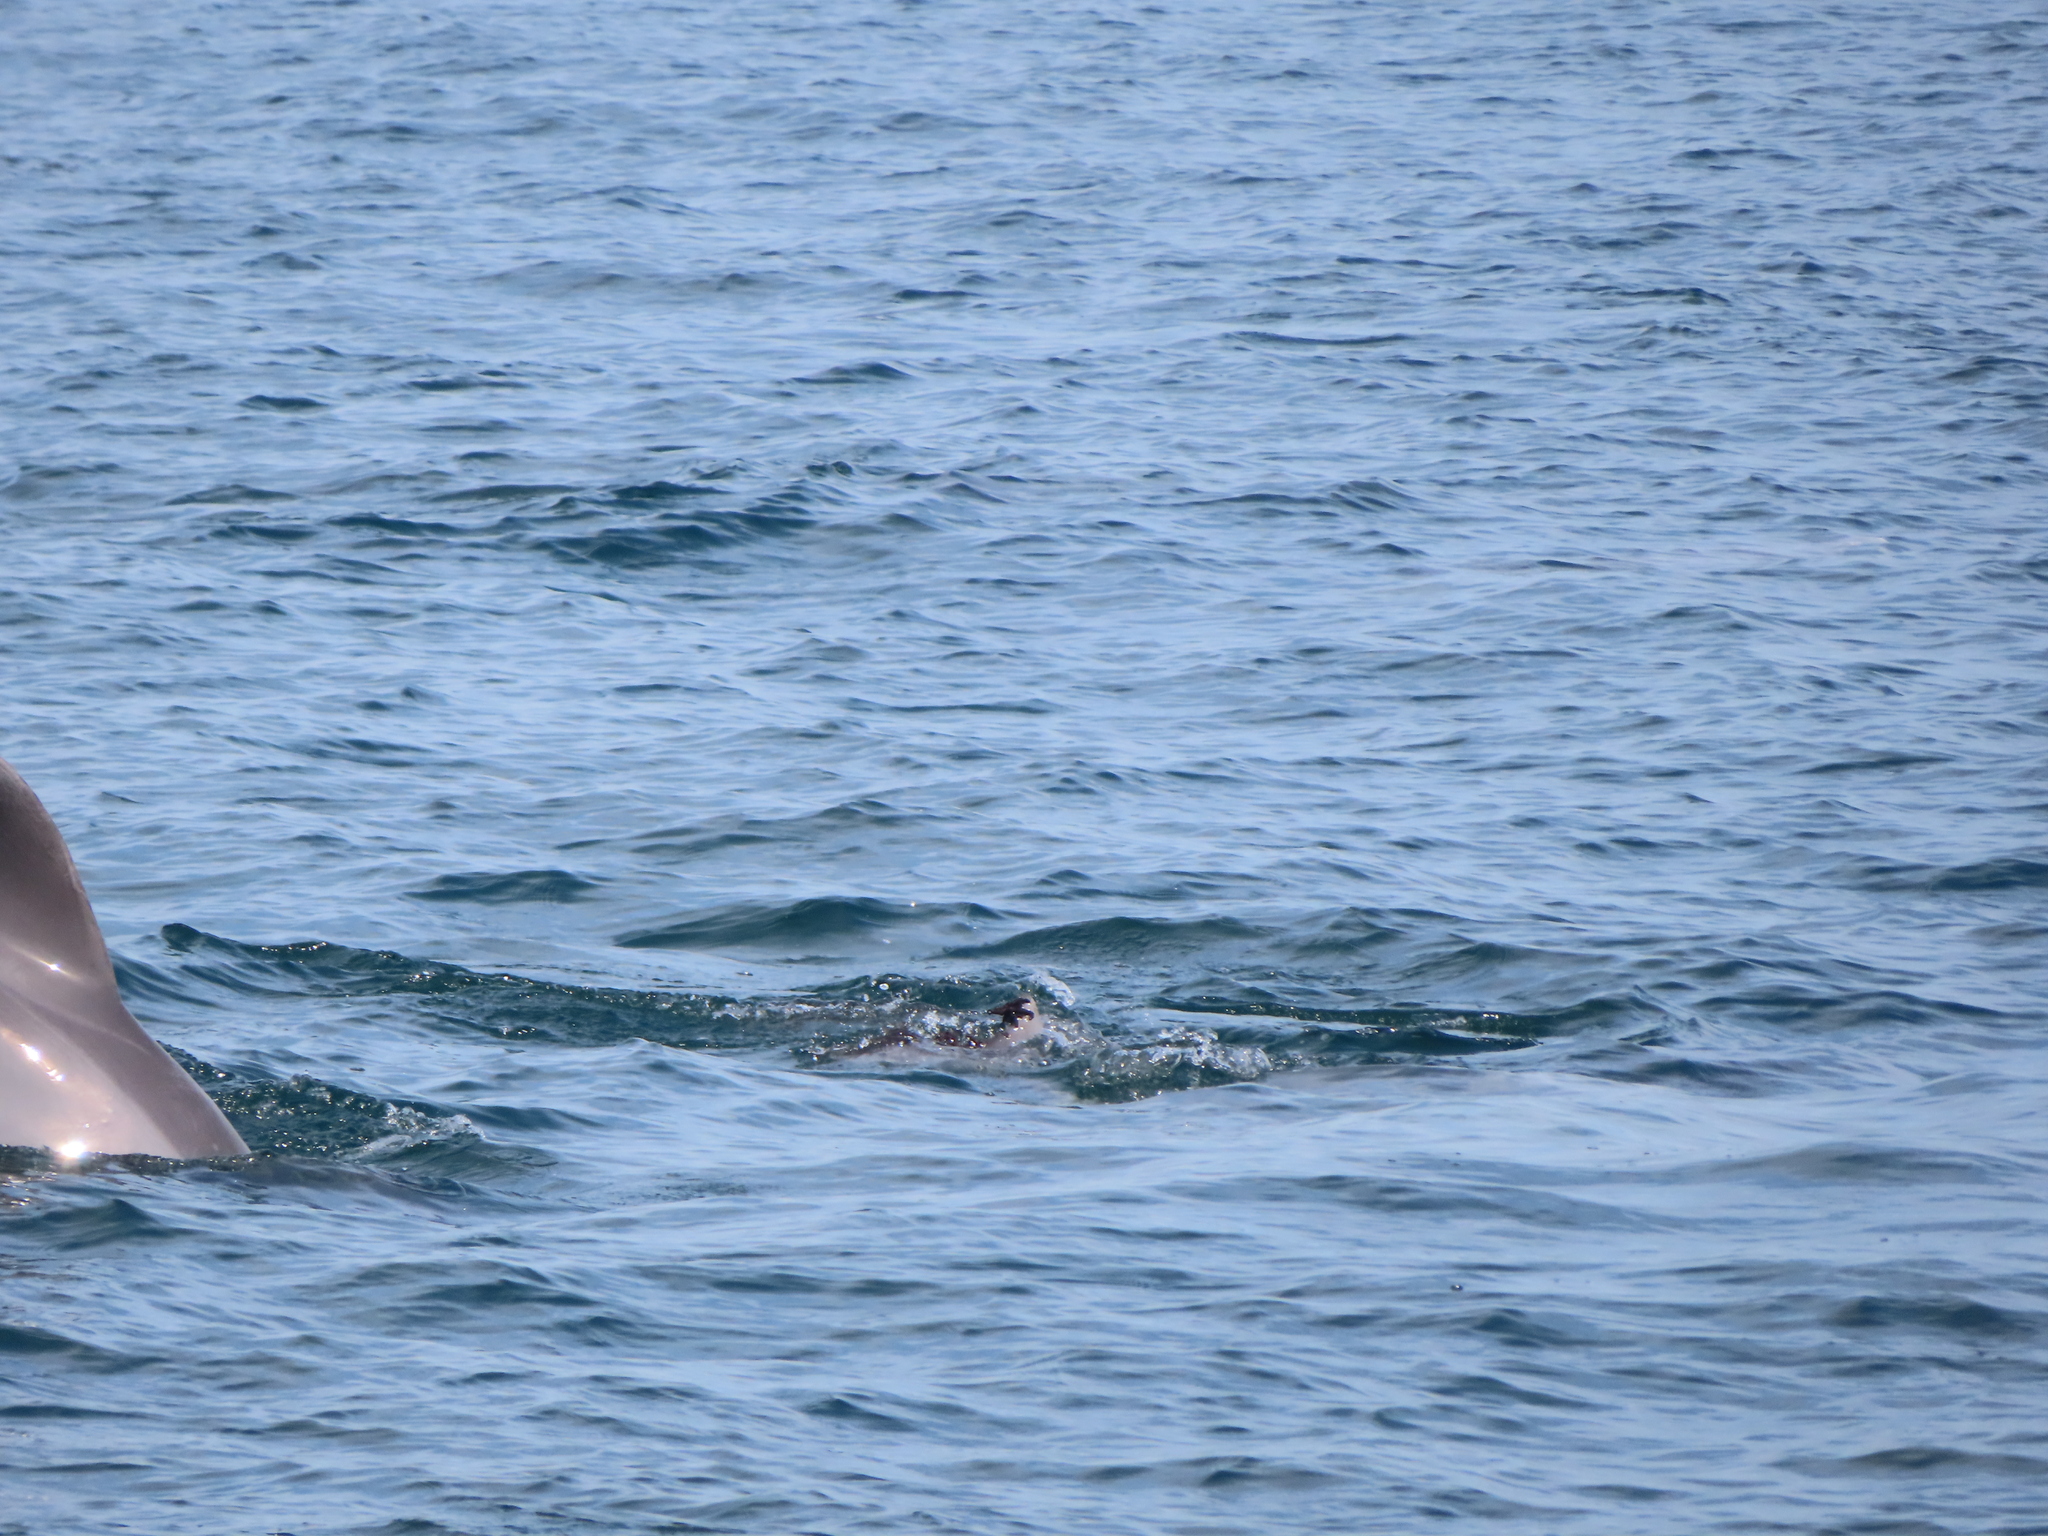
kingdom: Animalia
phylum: Chordata
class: Mammalia
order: Cetacea
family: Delphinidae
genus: Tursiops
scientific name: Tursiops truncatus
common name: Bottlenose dolphin
